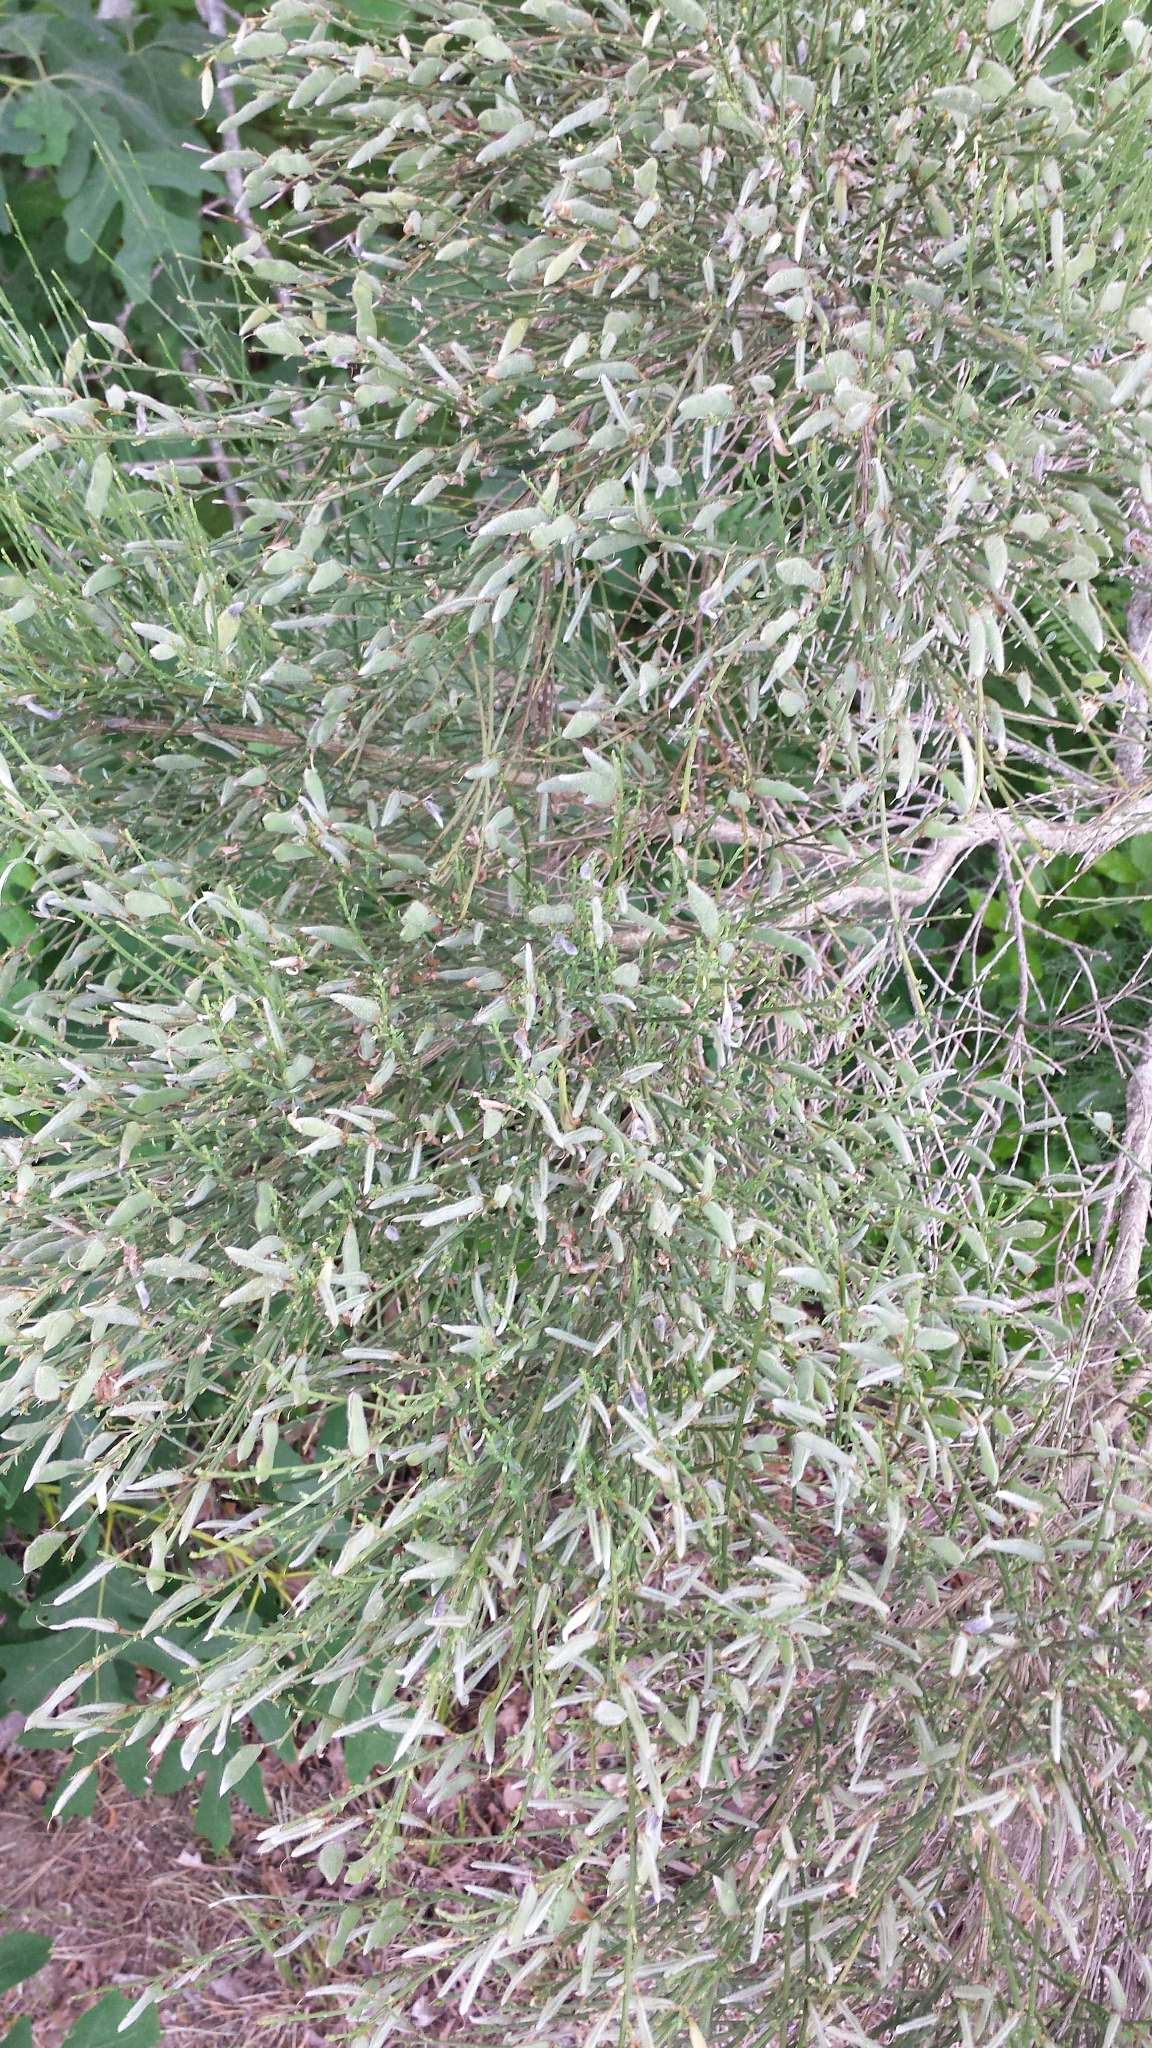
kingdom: Plantae
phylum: Tracheophyta
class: Magnoliopsida
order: Fabales
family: Fabaceae
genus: Cytisus
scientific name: Cytisus scoparius
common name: Scotch broom
